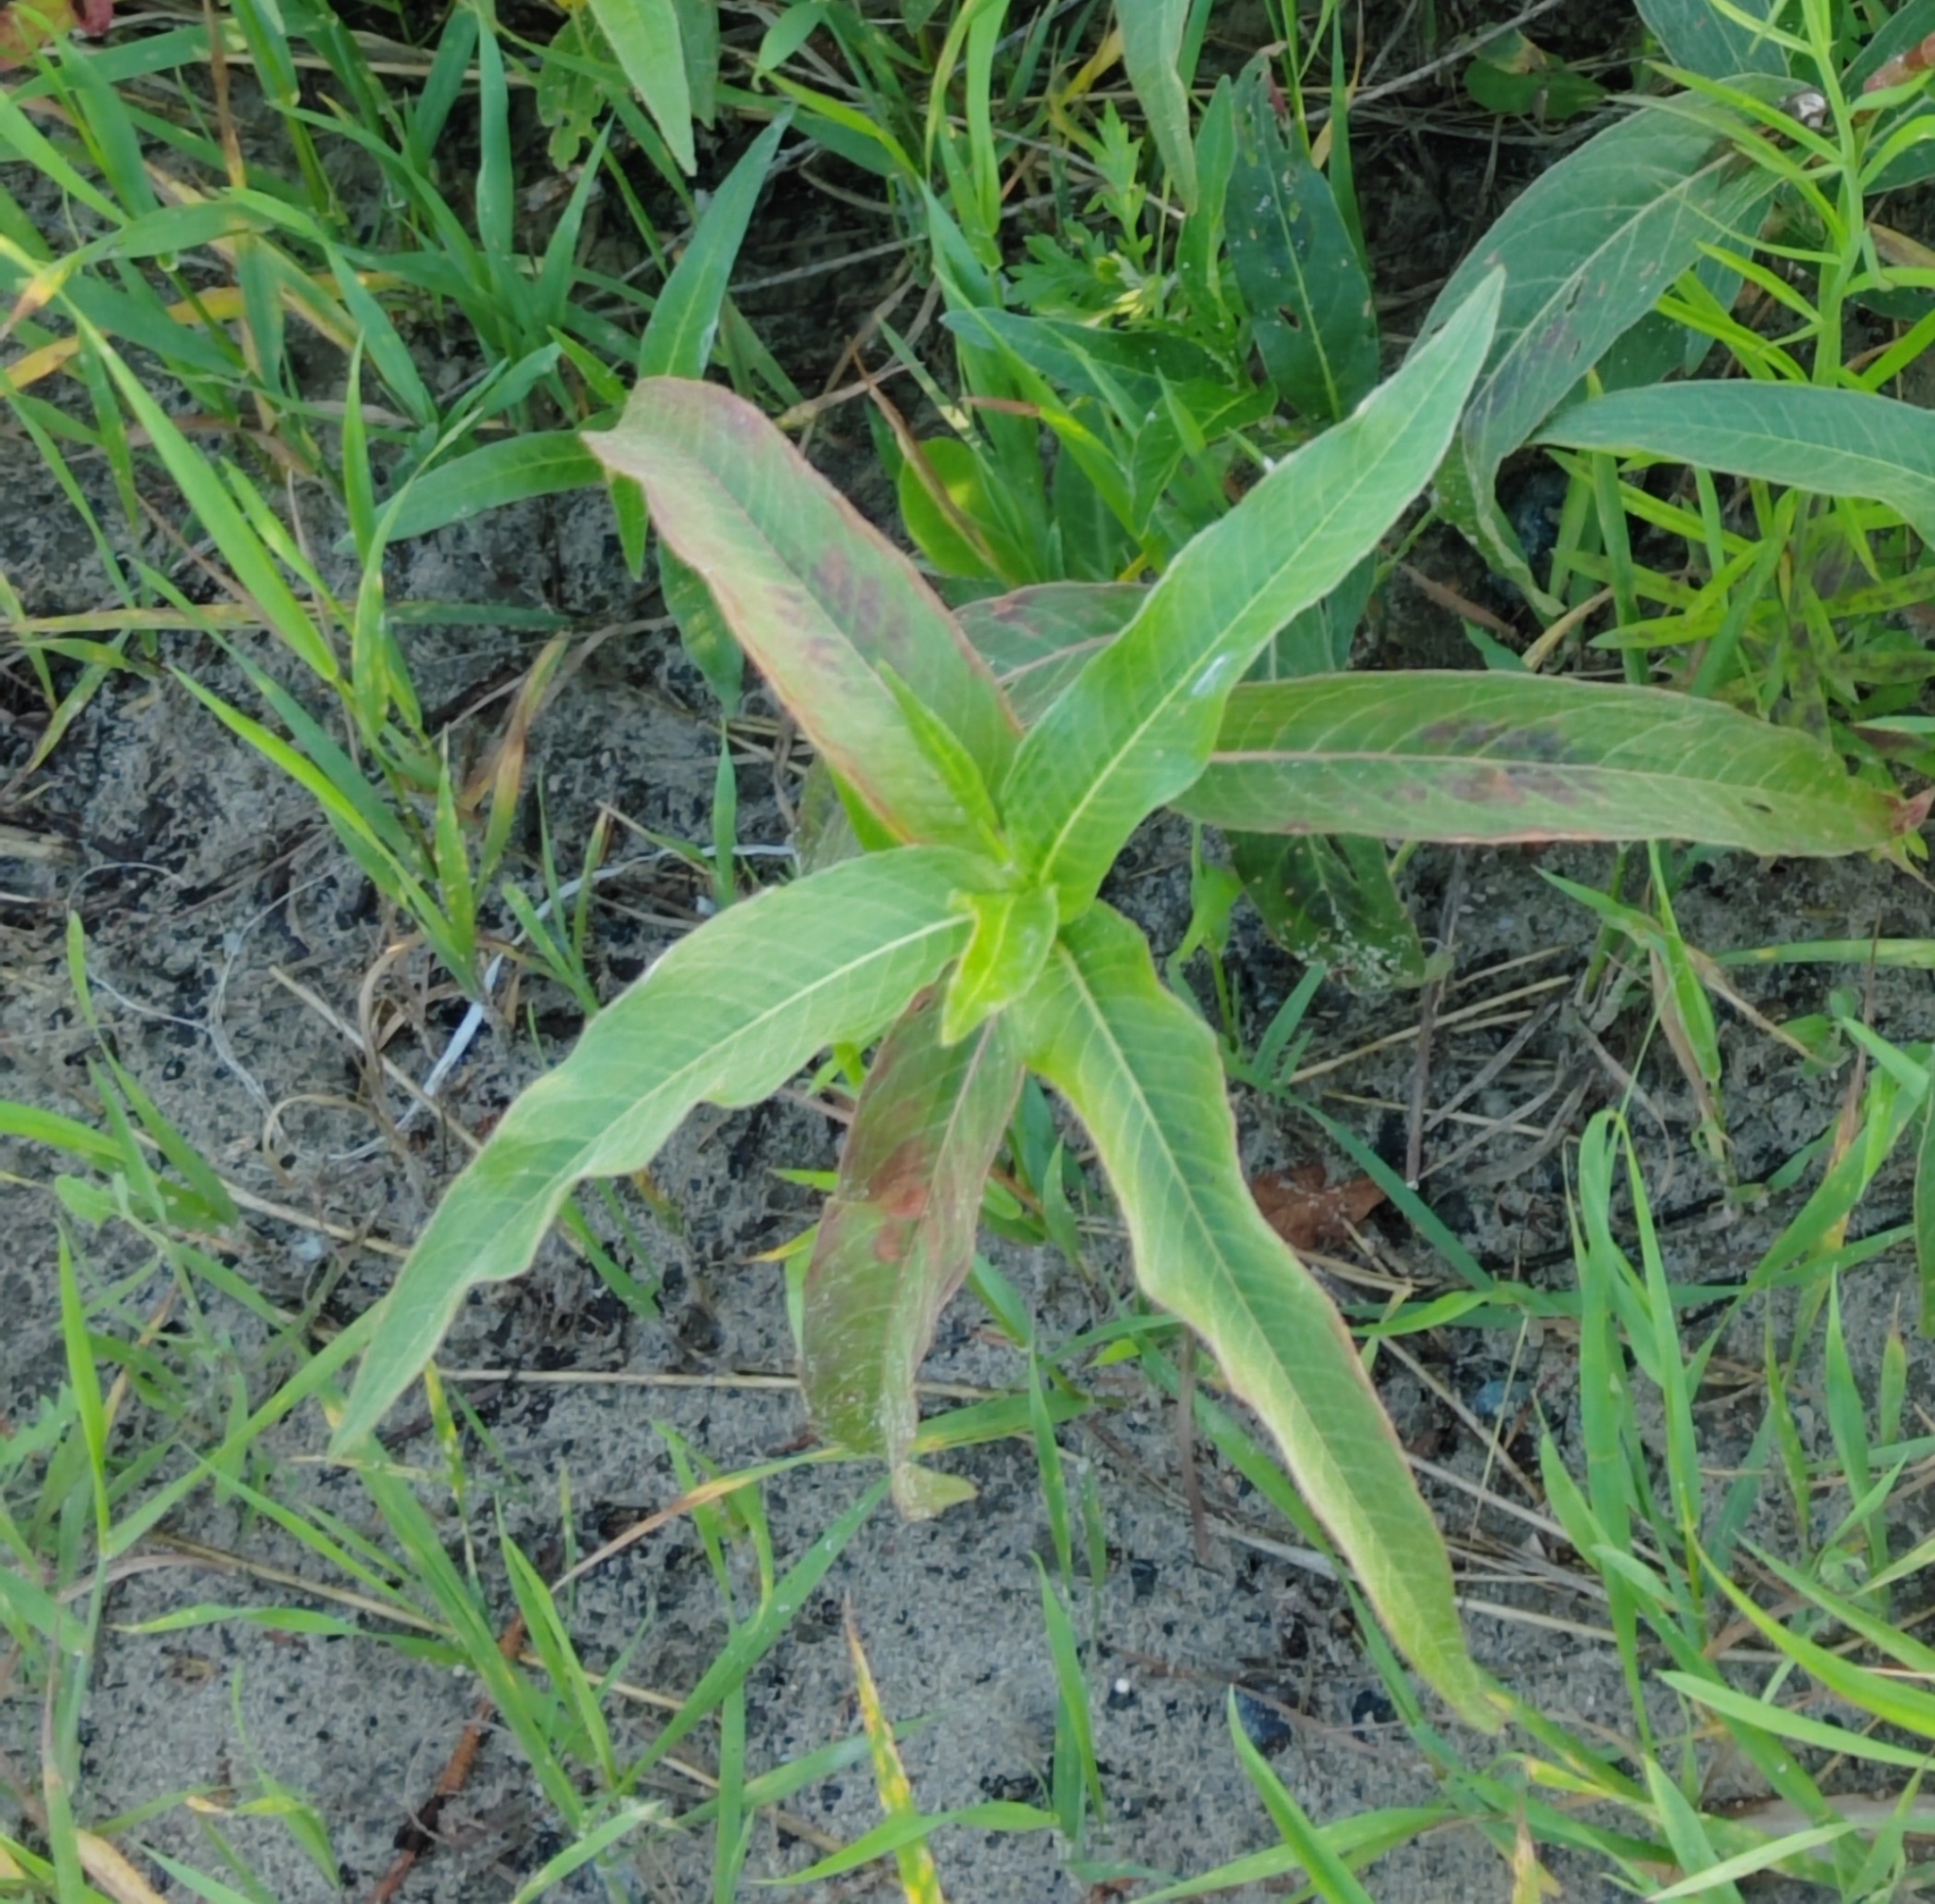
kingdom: Plantae
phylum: Tracheophyta
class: Magnoliopsida
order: Caryophyllales
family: Polygonaceae
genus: Persicaria
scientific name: Persicaria amphibia
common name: Amphibious bistort
